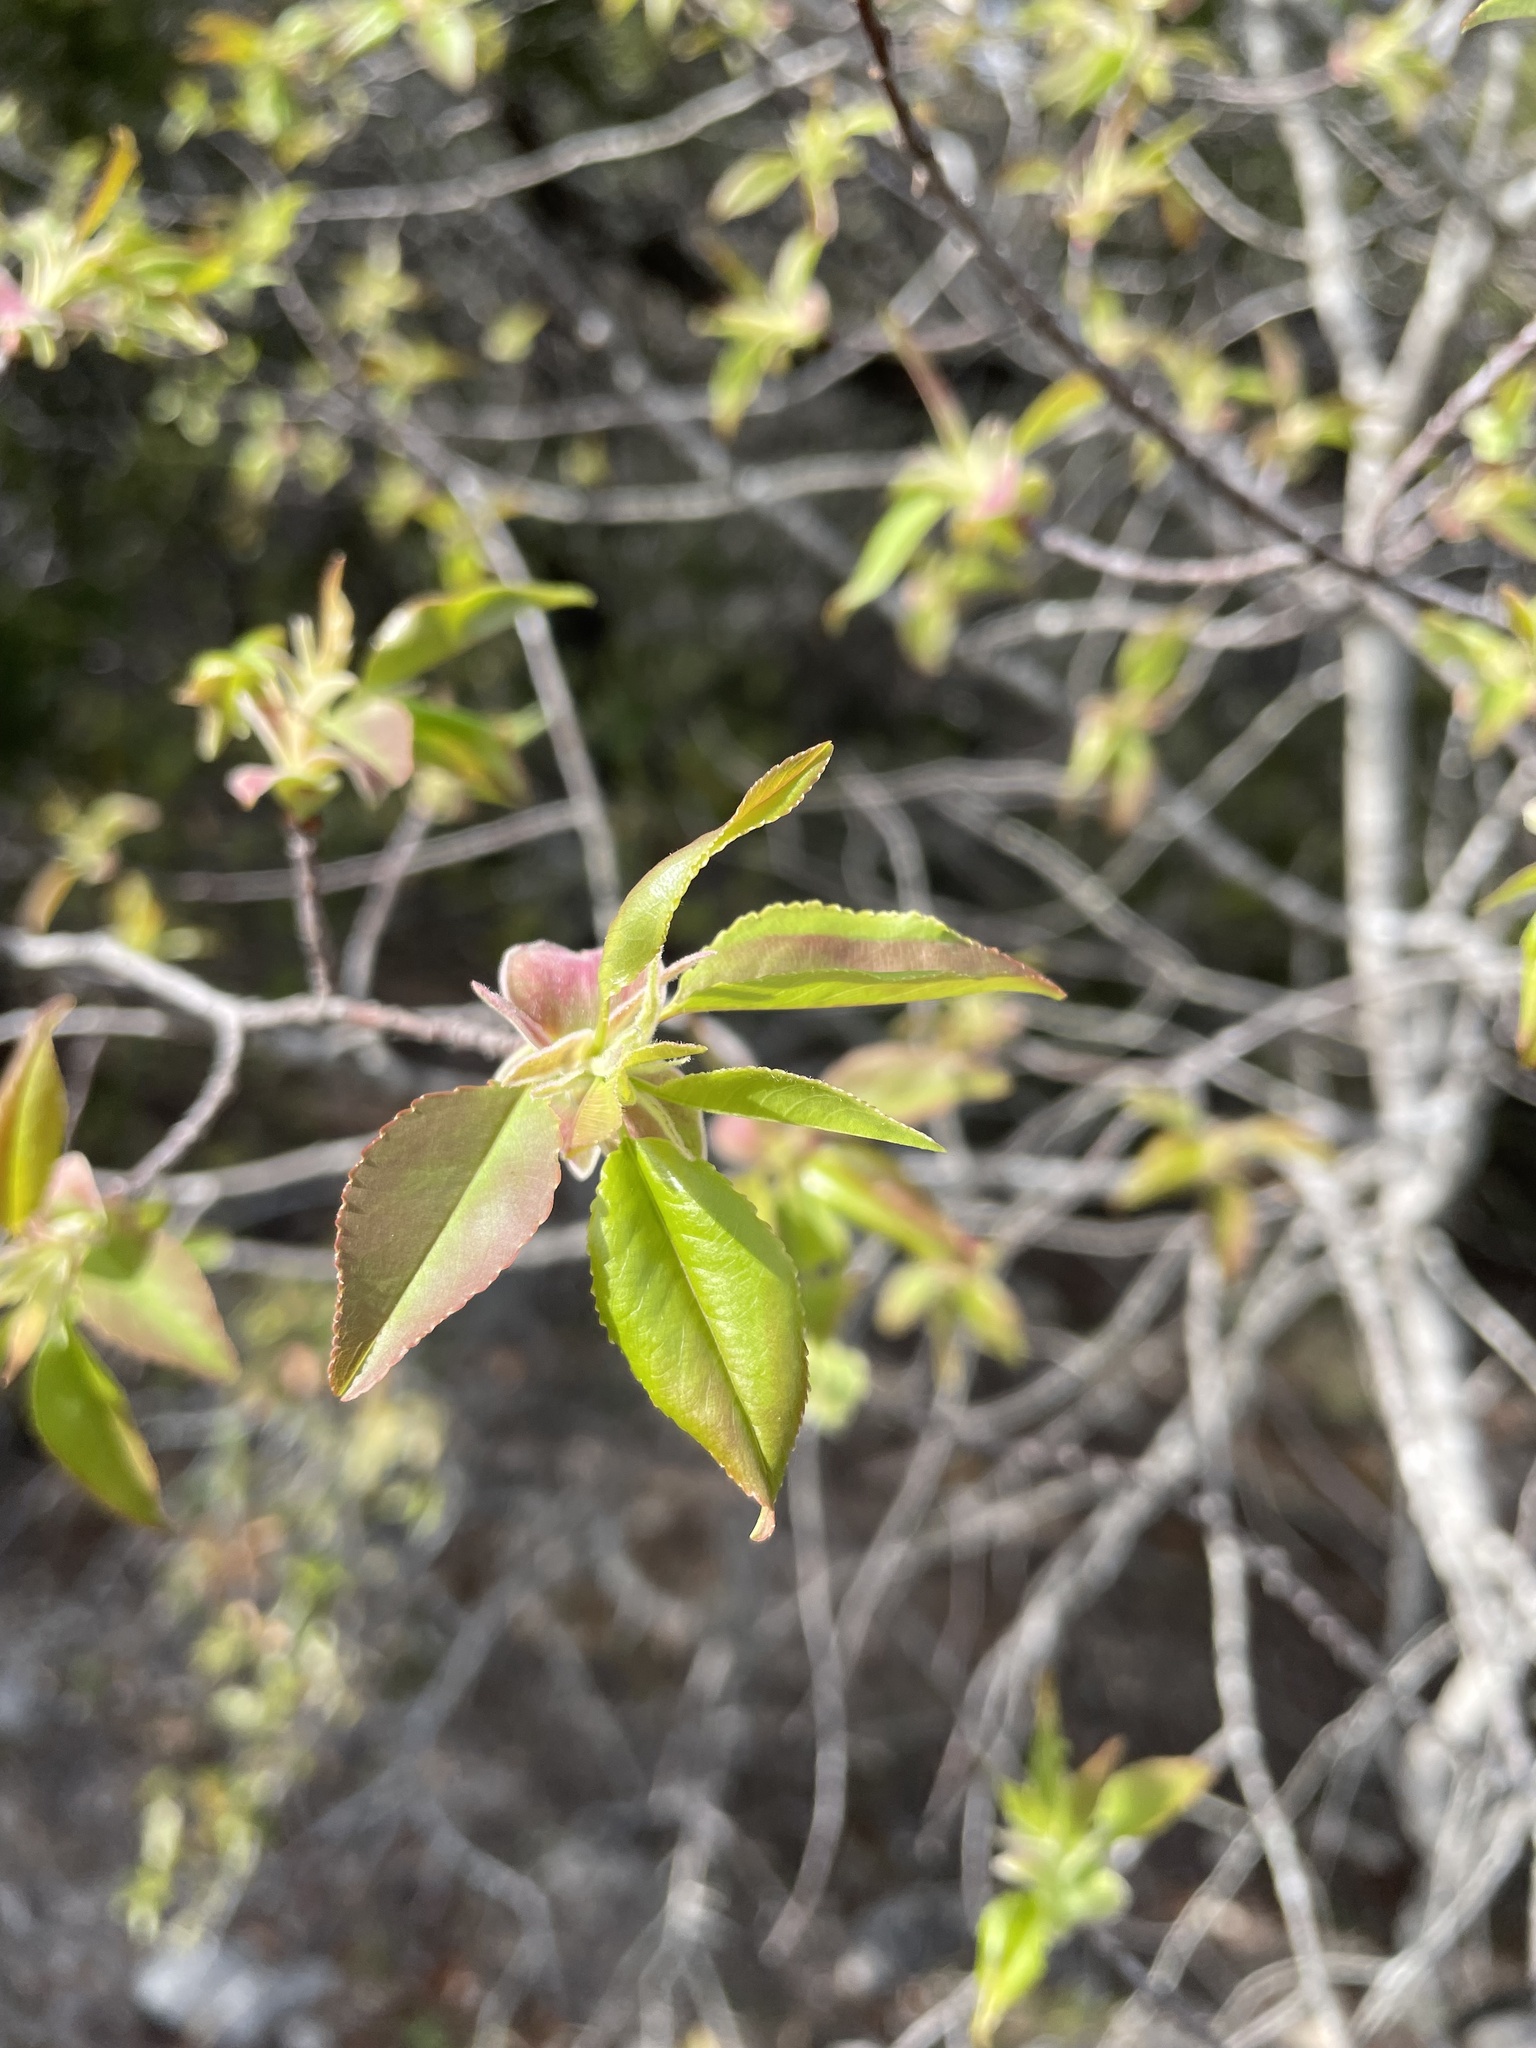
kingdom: Plantae
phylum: Tracheophyta
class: Magnoliopsida
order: Rosales
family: Rosaceae
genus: Prunus
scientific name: Prunus serotina
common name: Black cherry
